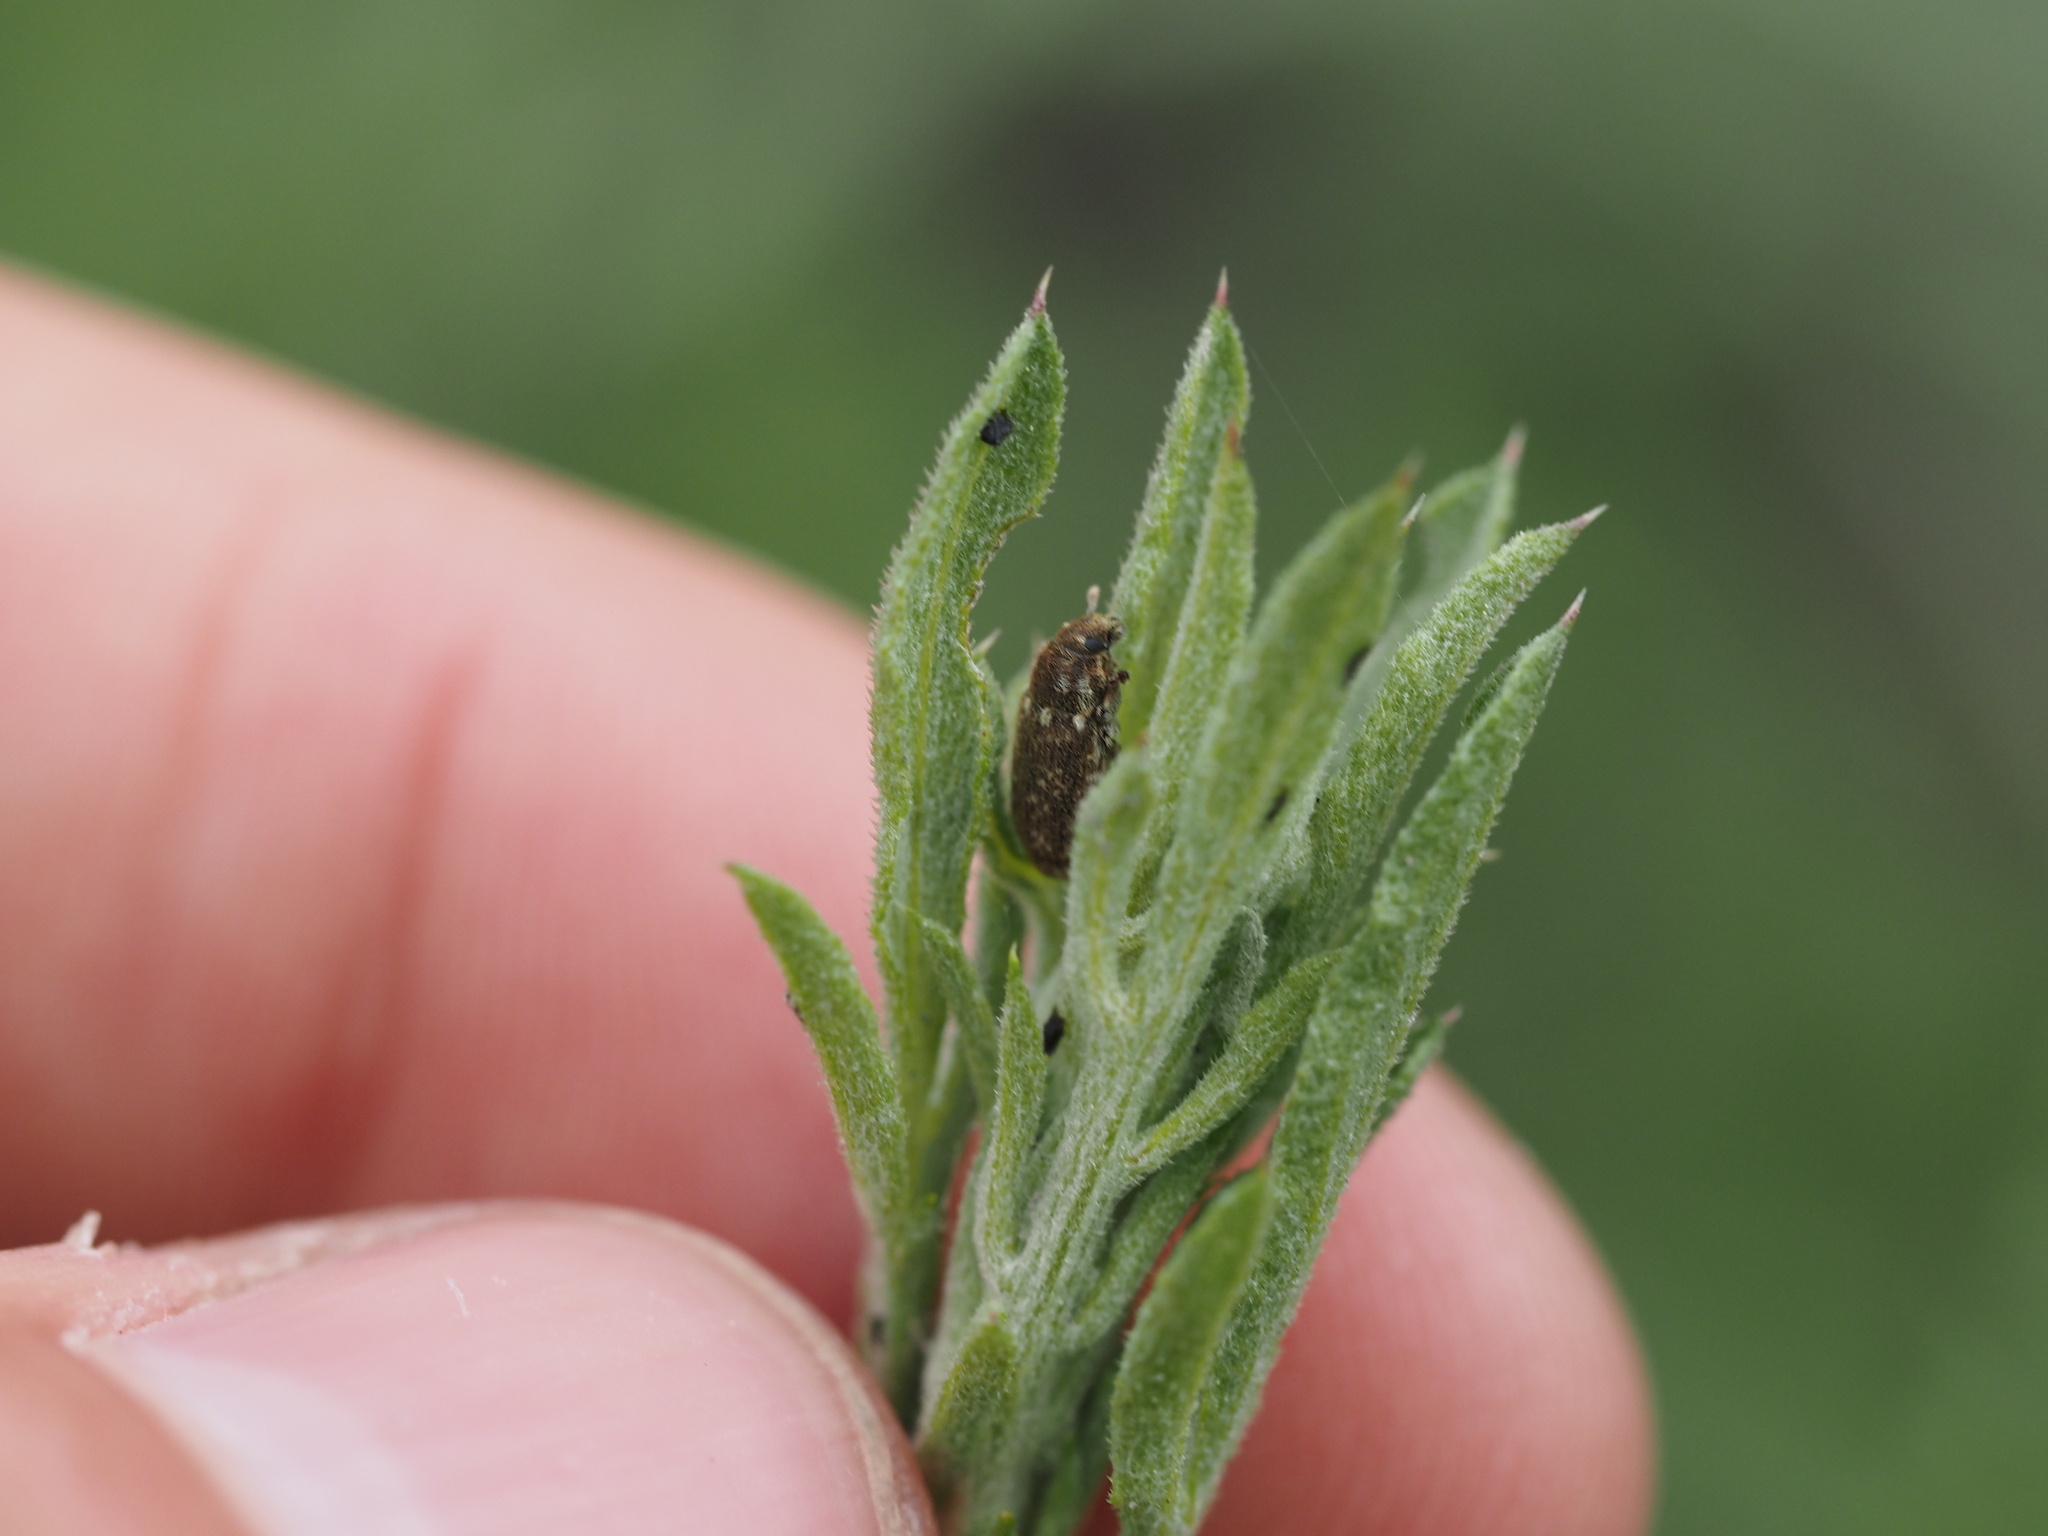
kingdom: Animalia
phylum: Arthropoda
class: Insecta
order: Coleoptera
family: Curculionidae
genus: Bangasternus
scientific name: Bangasternus fausti
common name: Broad-nosed knapweed seedhead weevil
